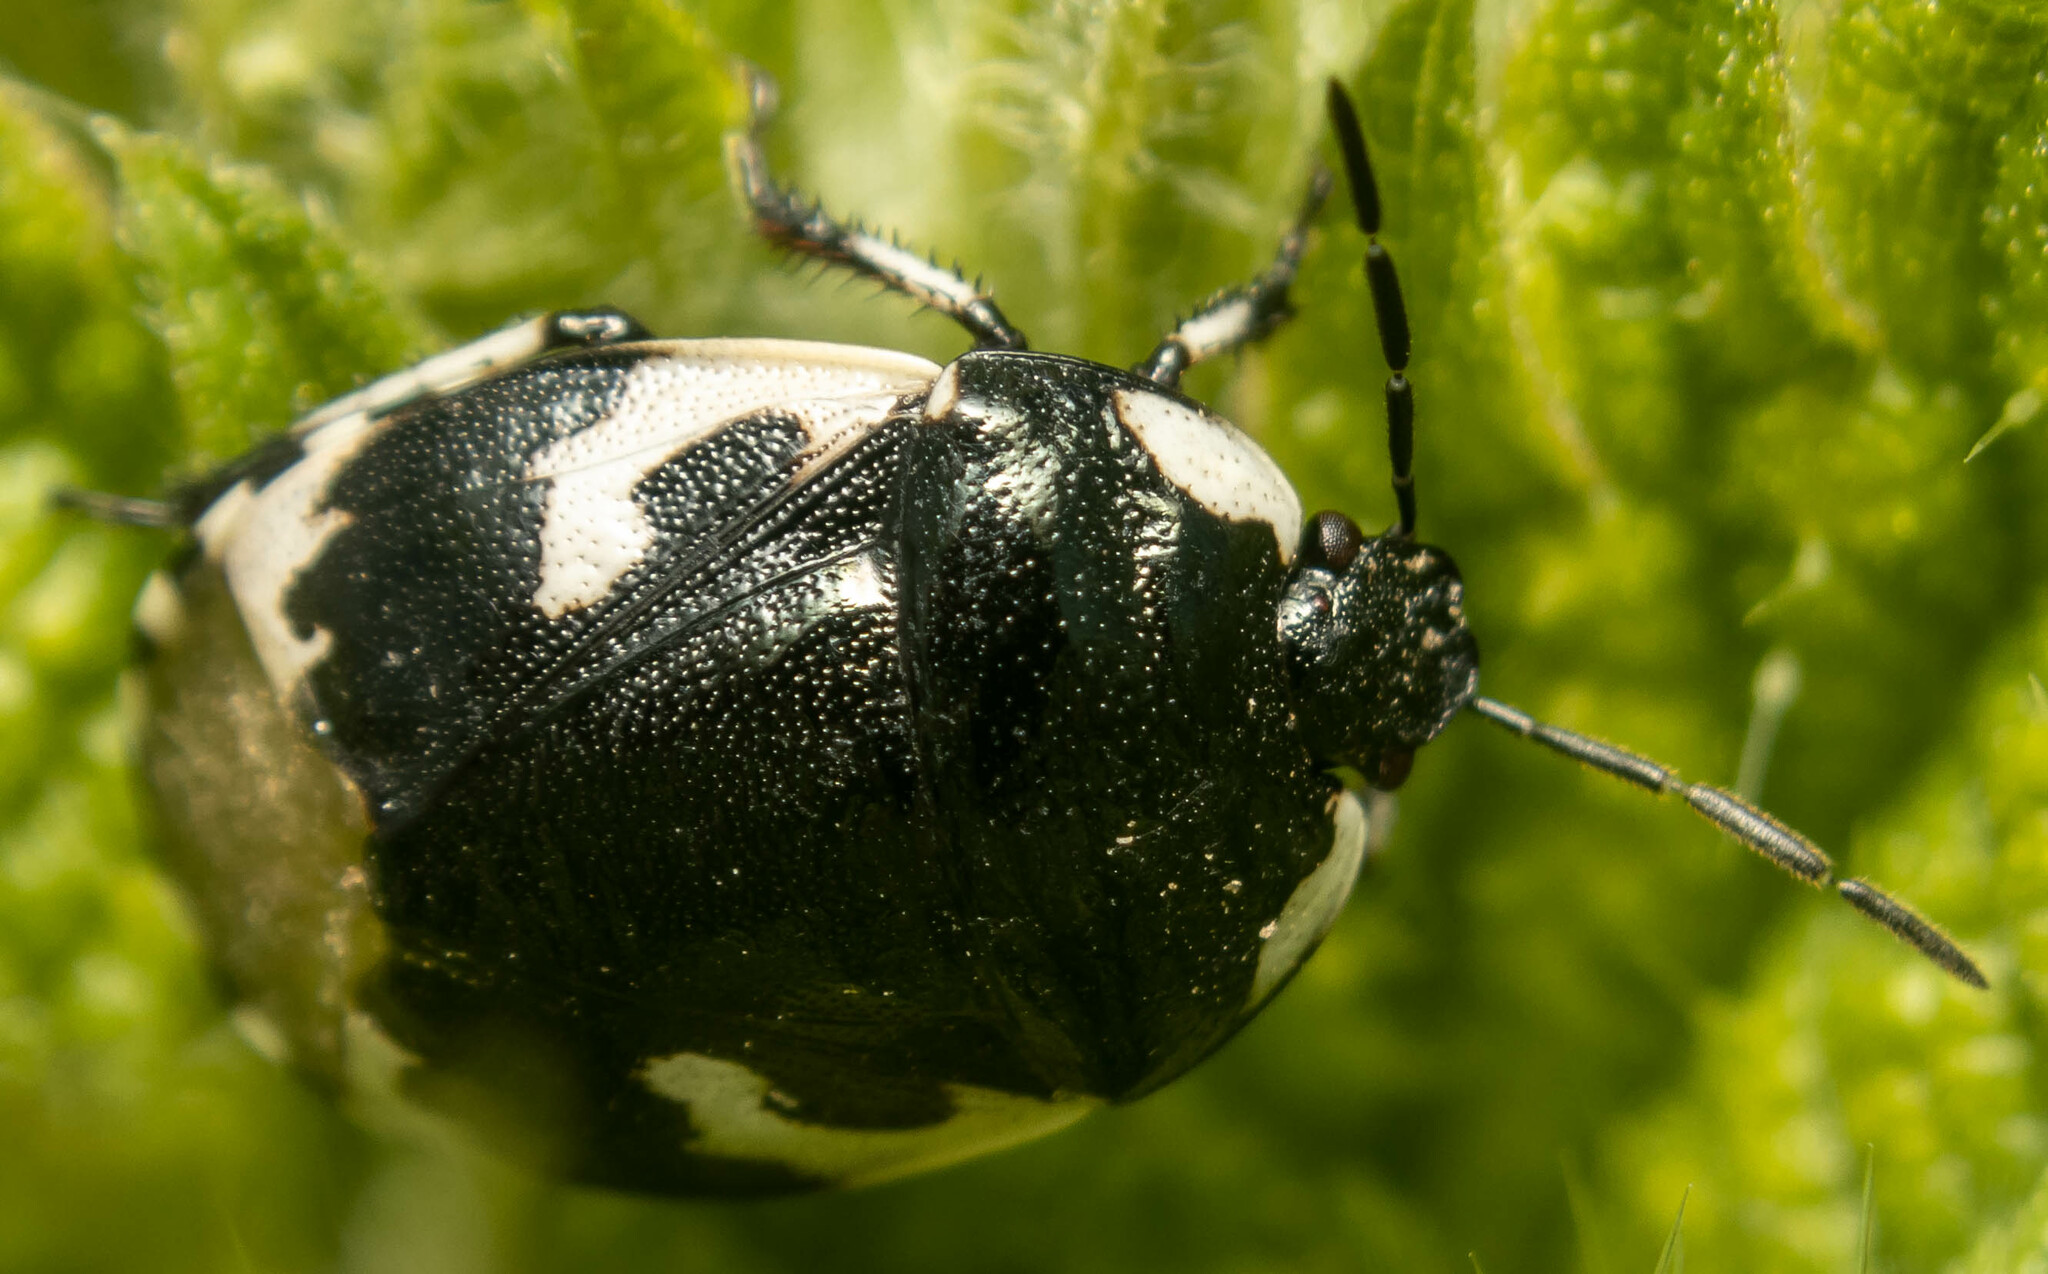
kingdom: Animalia
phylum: Arthropoda
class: Insecta
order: Hemiptera
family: Cydnidae
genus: Tritomegas
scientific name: Tritomegas bicolor
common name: Pied shieldbug
